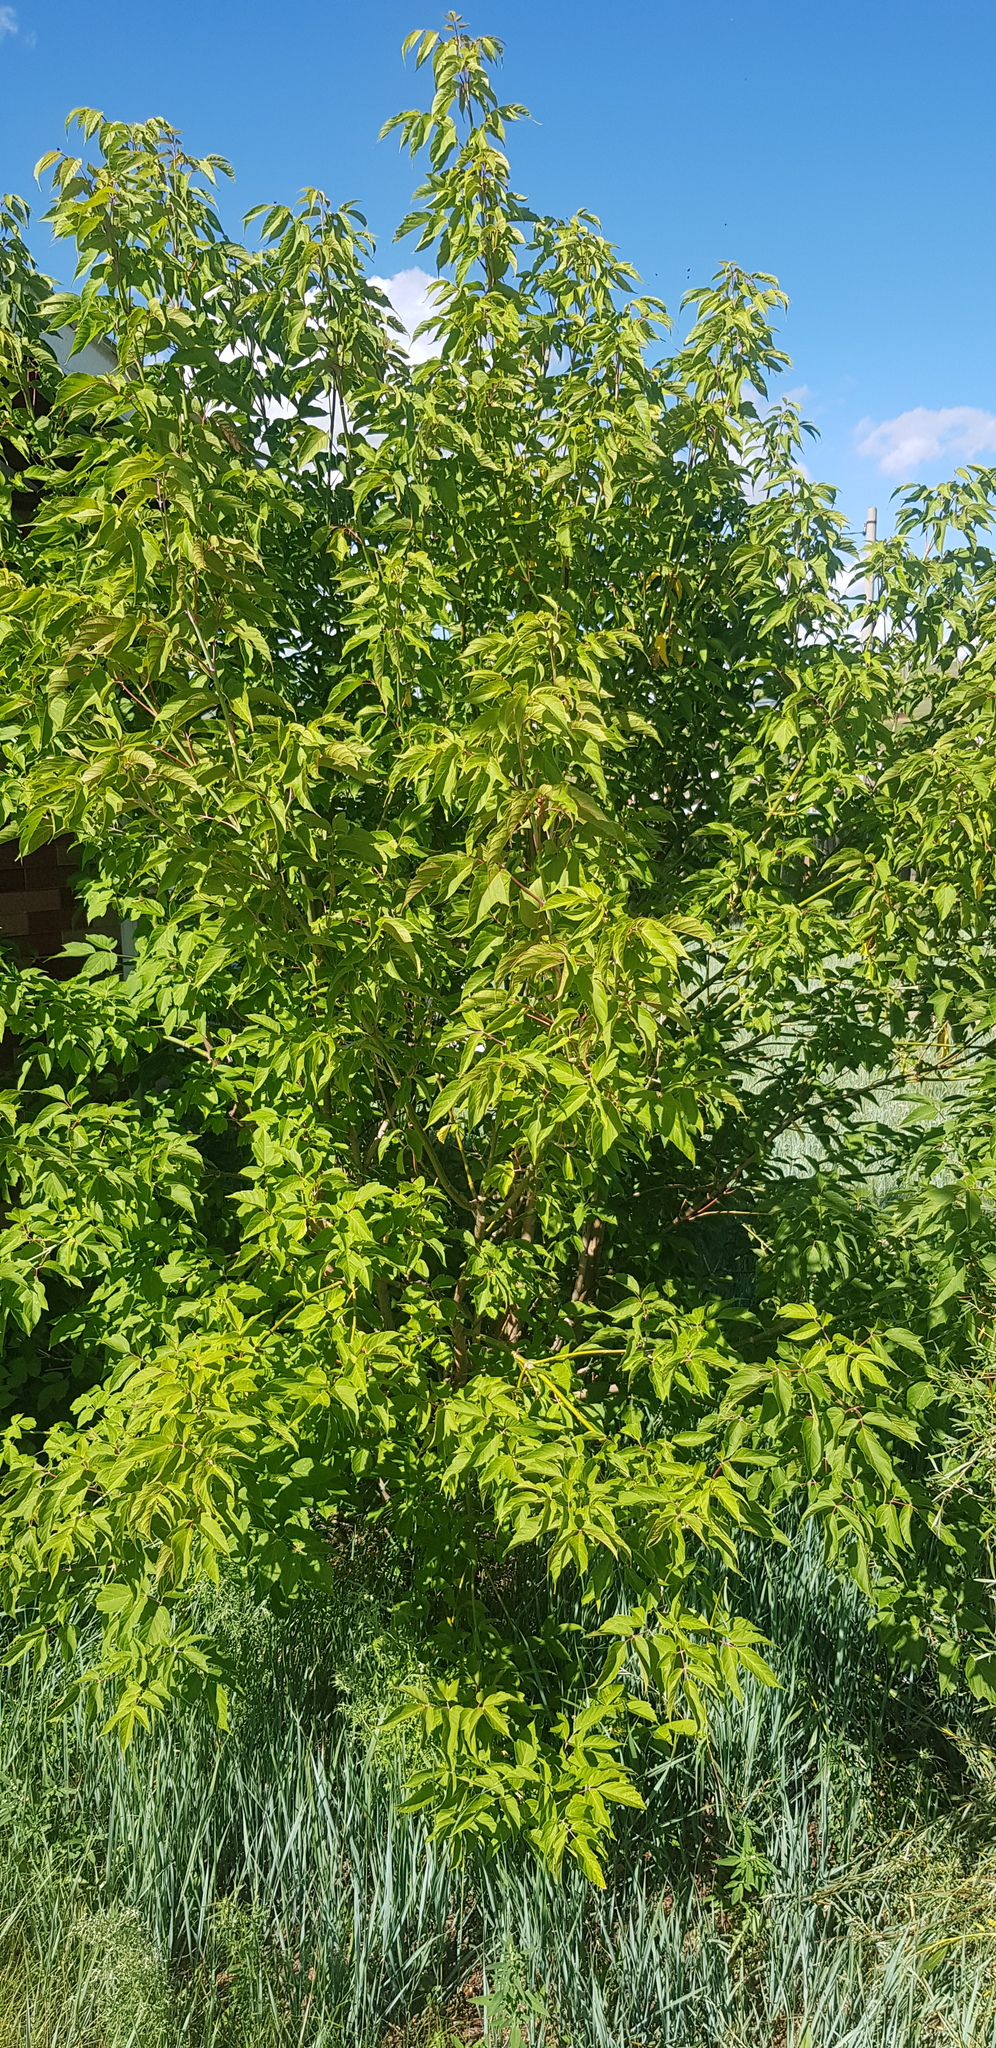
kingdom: Plantae
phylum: Tracheophyta
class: Magnoliopsida
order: Sapindales
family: Sapindaceae
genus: Acer
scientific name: Acer negundo
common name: Ashleaf maple
